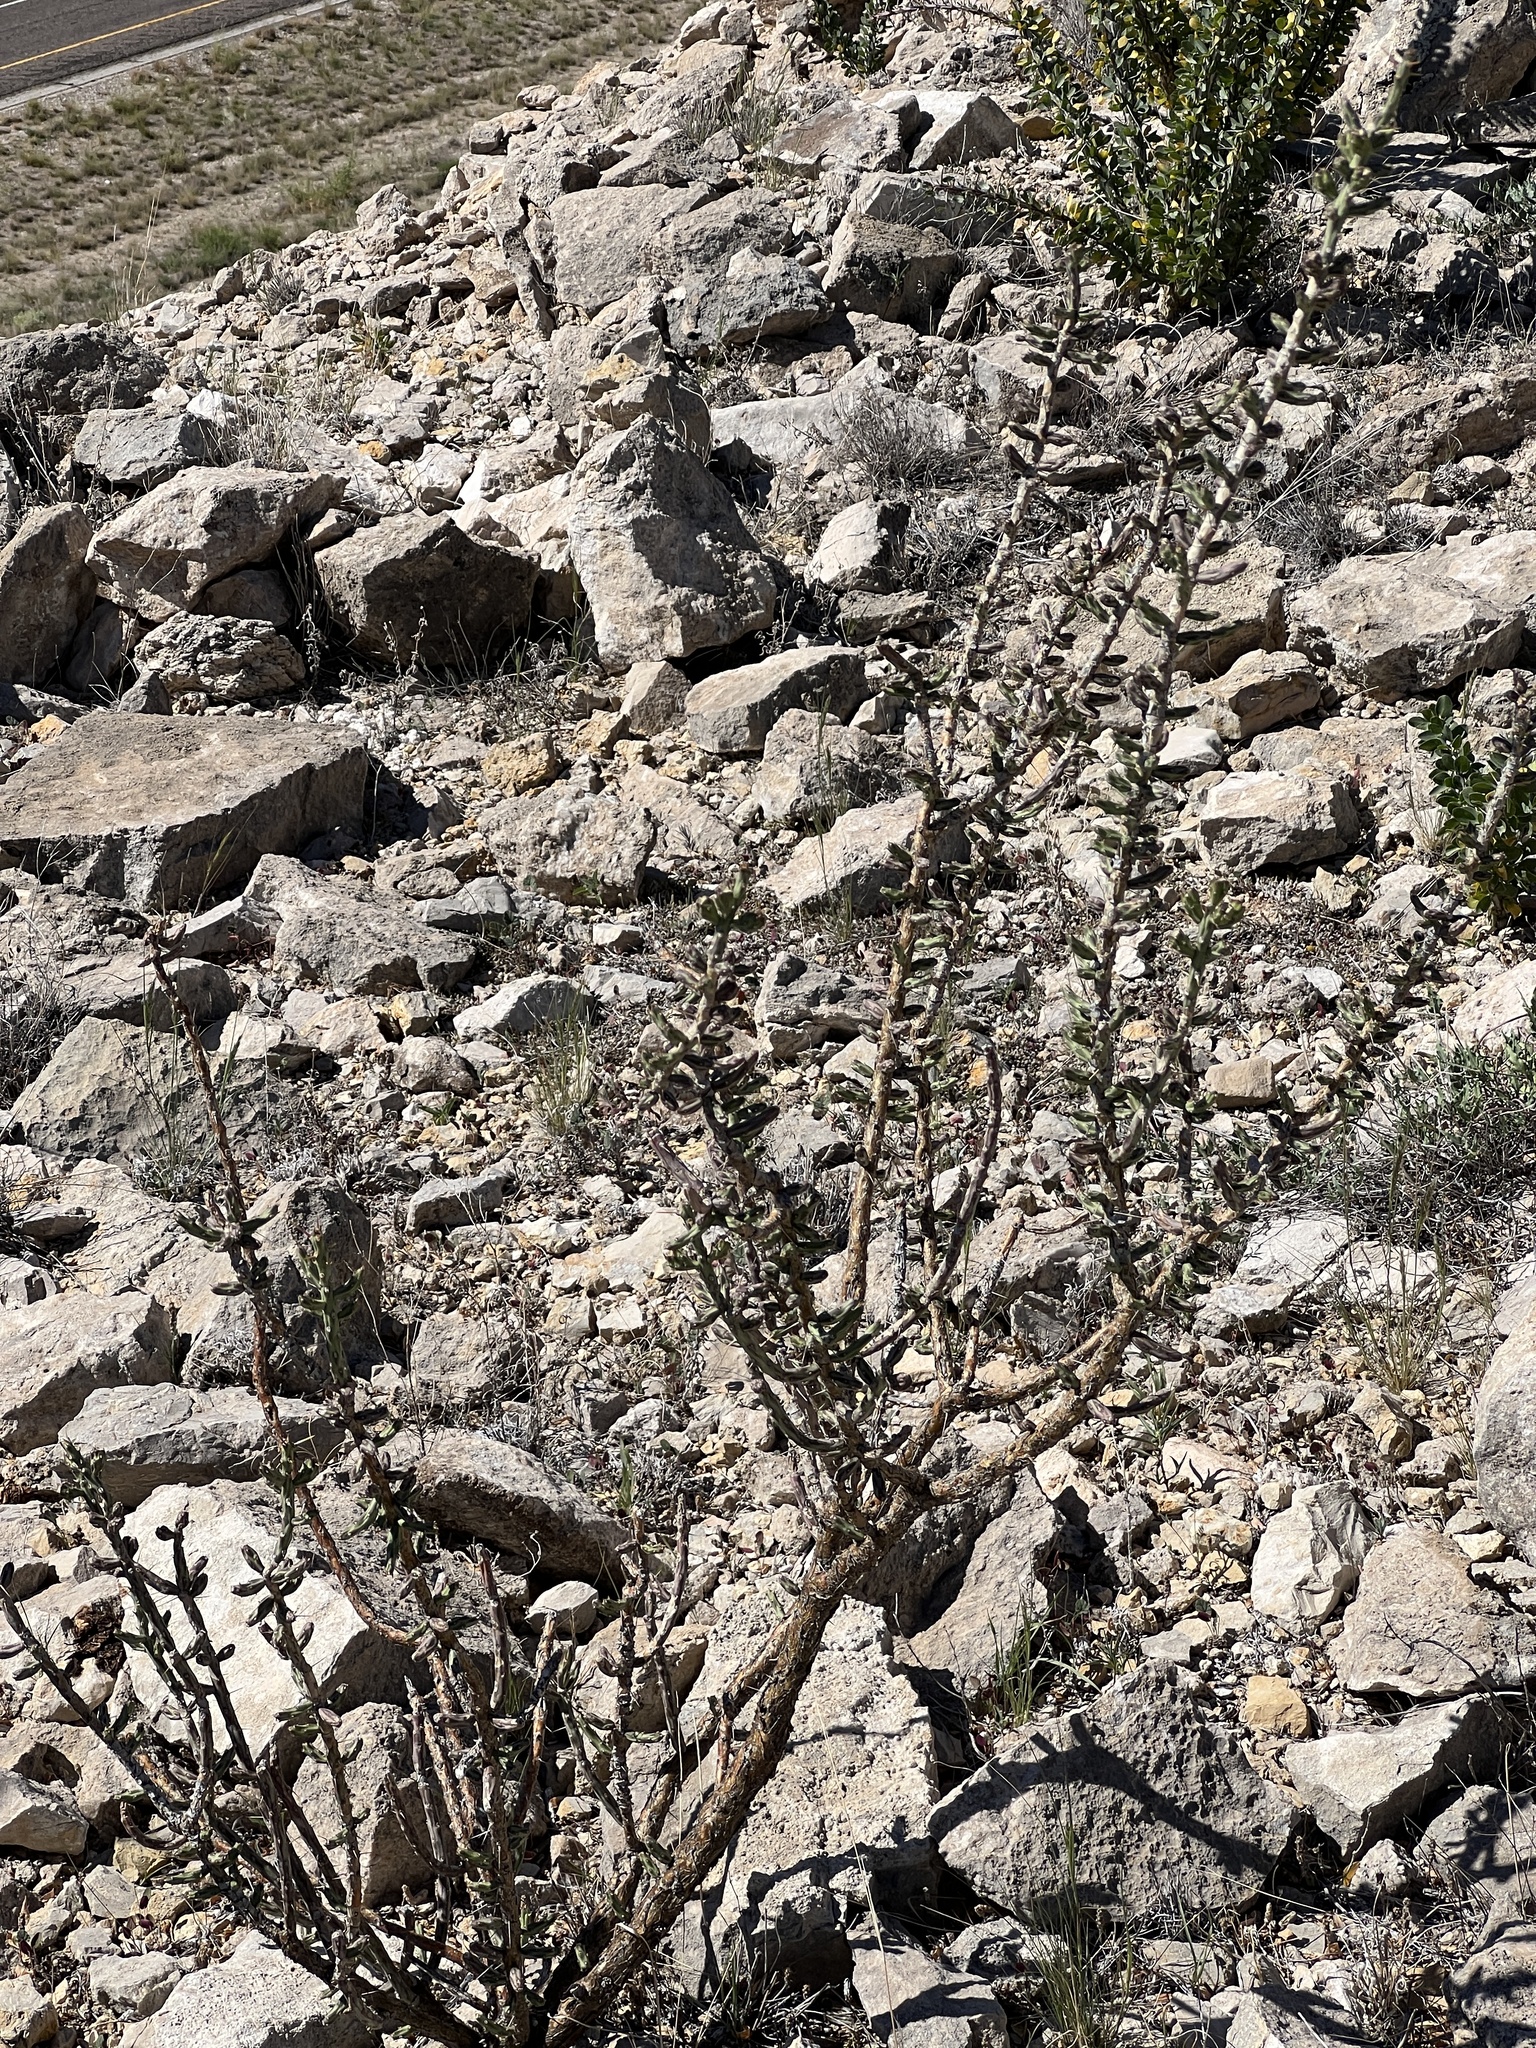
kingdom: Plantae
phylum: Tracheophyta
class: Magnoliopsida
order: Caryophyllales
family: Cactaceae
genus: Cylindropuntia
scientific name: Cylindropuntia leptocaulis
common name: Christmas cactus
